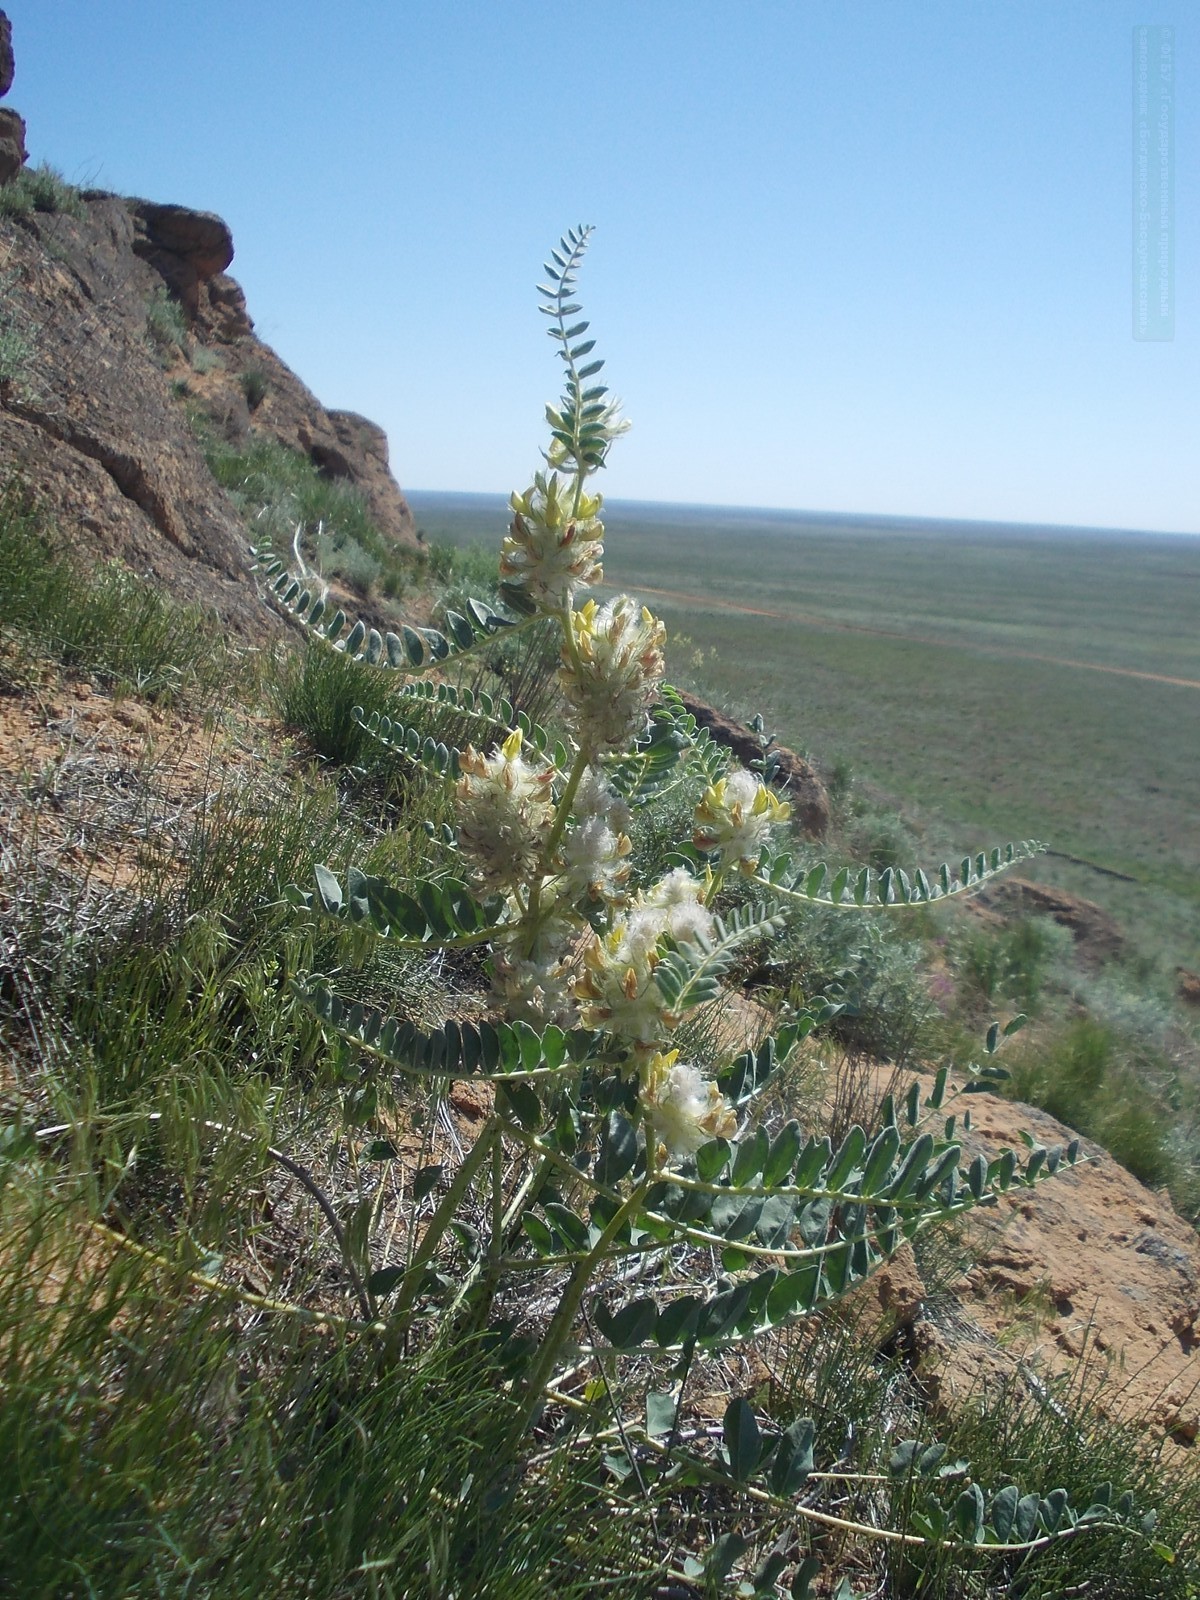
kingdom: Plantae
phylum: Tracheophyta
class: Magnoliopsida
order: Fabales
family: Fabaceae
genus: Astragalus
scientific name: Astragalus vulpinus
